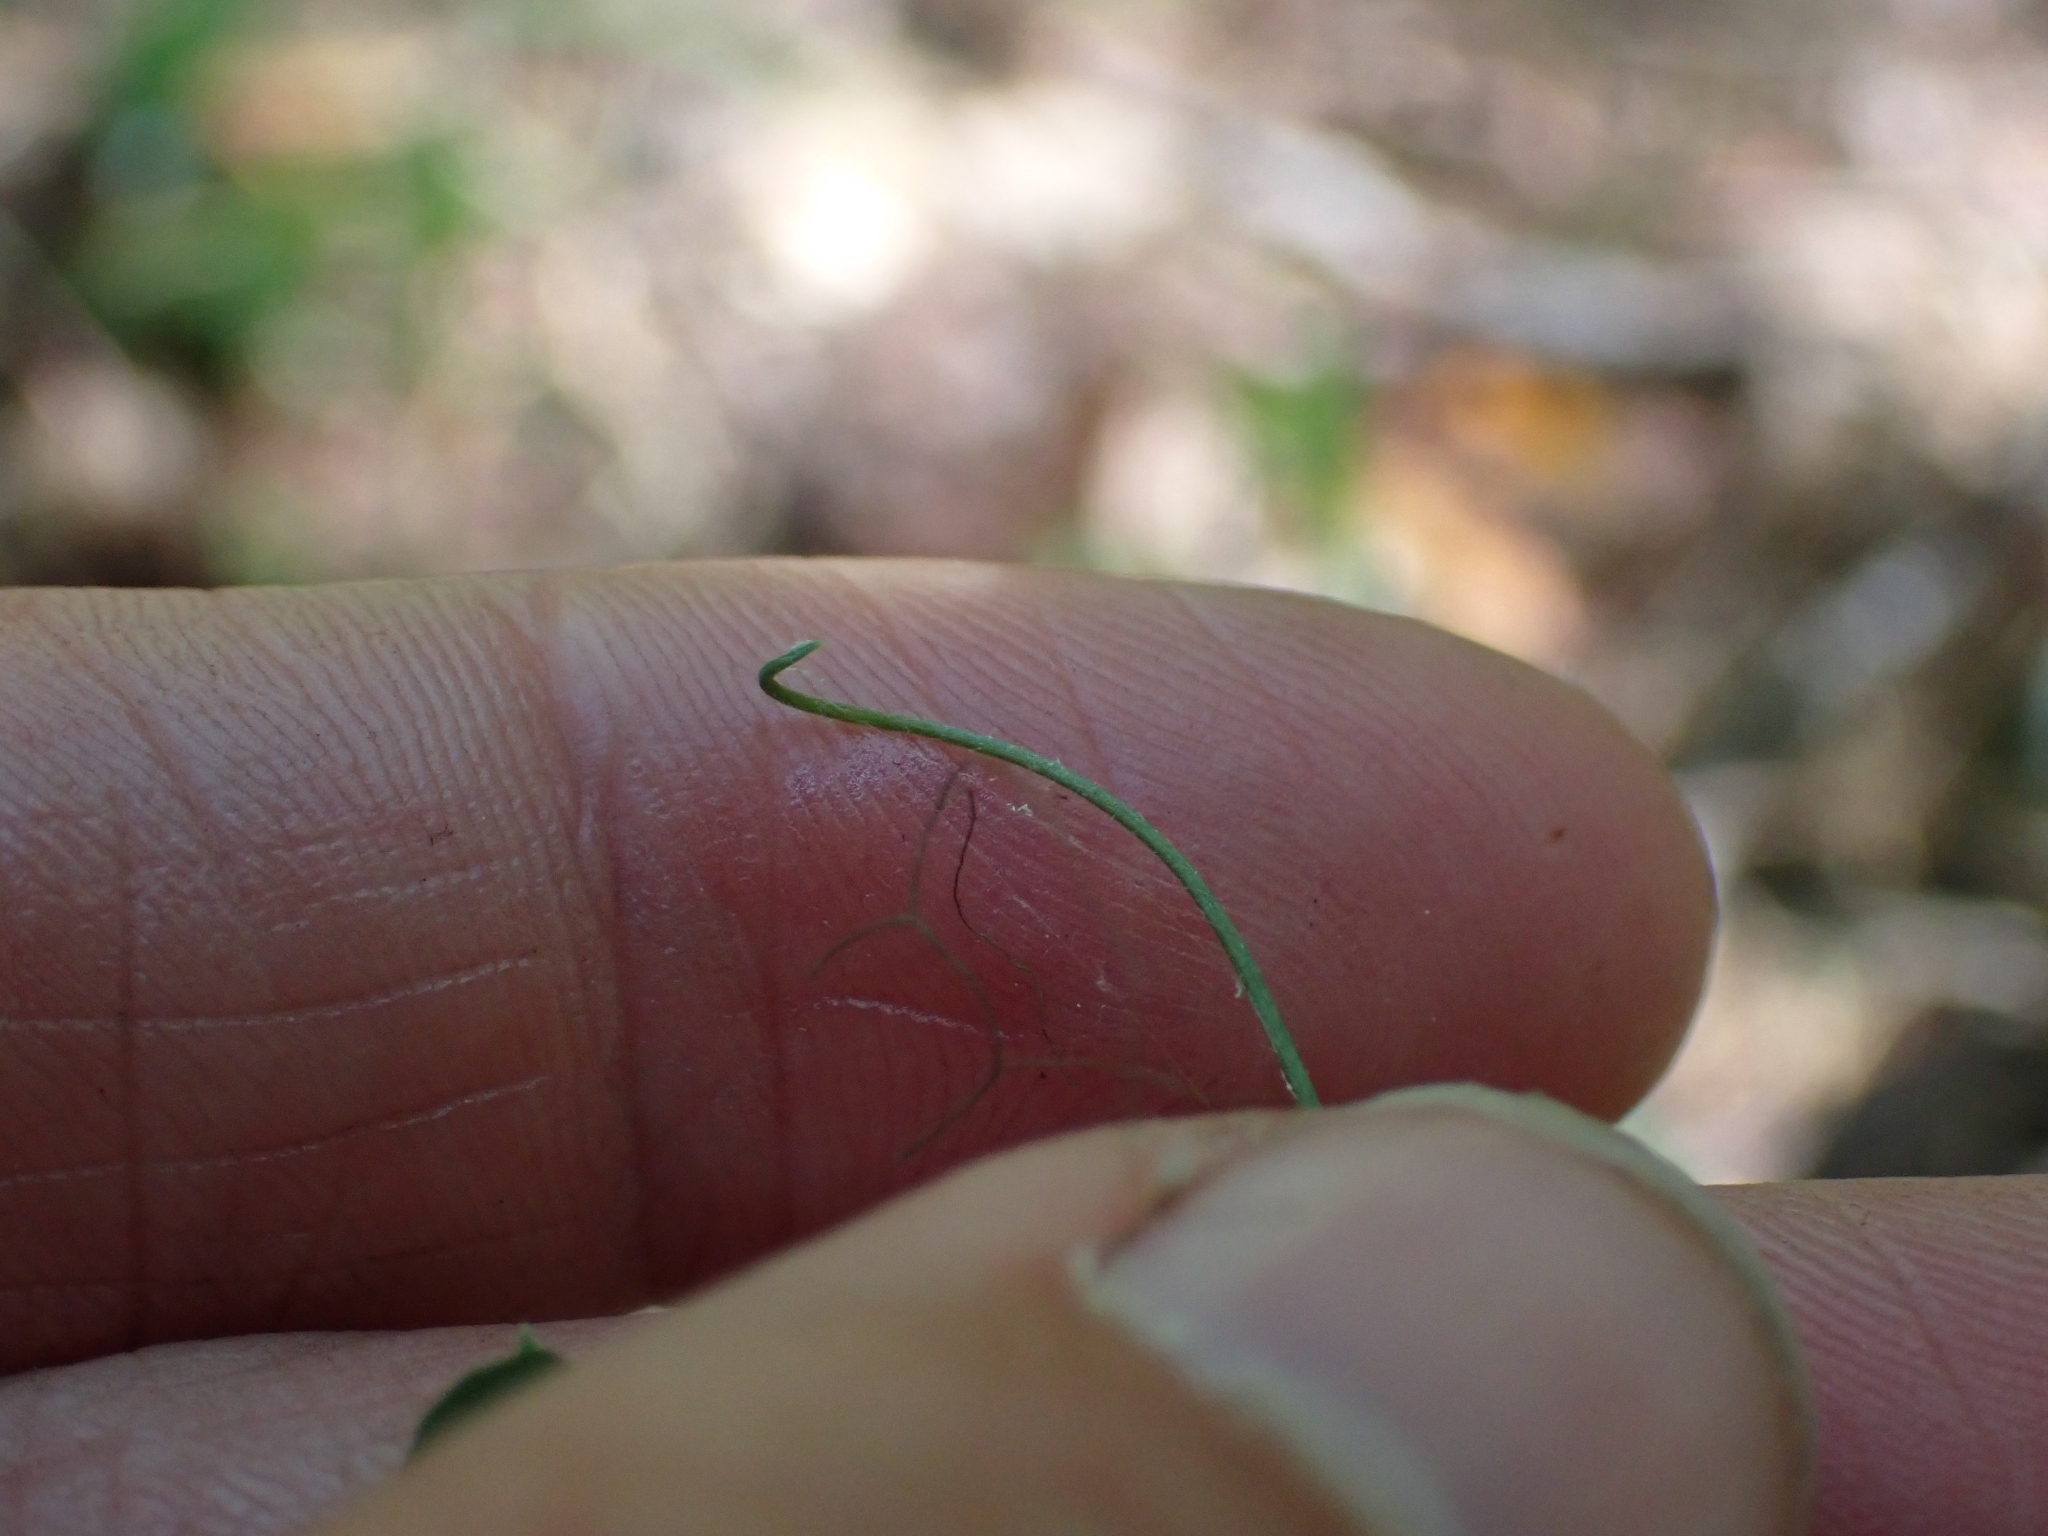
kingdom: Plantae
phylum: Tracheophyta
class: Magnoliopsida
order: Fabales
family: Fabaceae
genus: Lathyrus
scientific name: Lathyrus nevadensis
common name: Sierra nevada peavine
